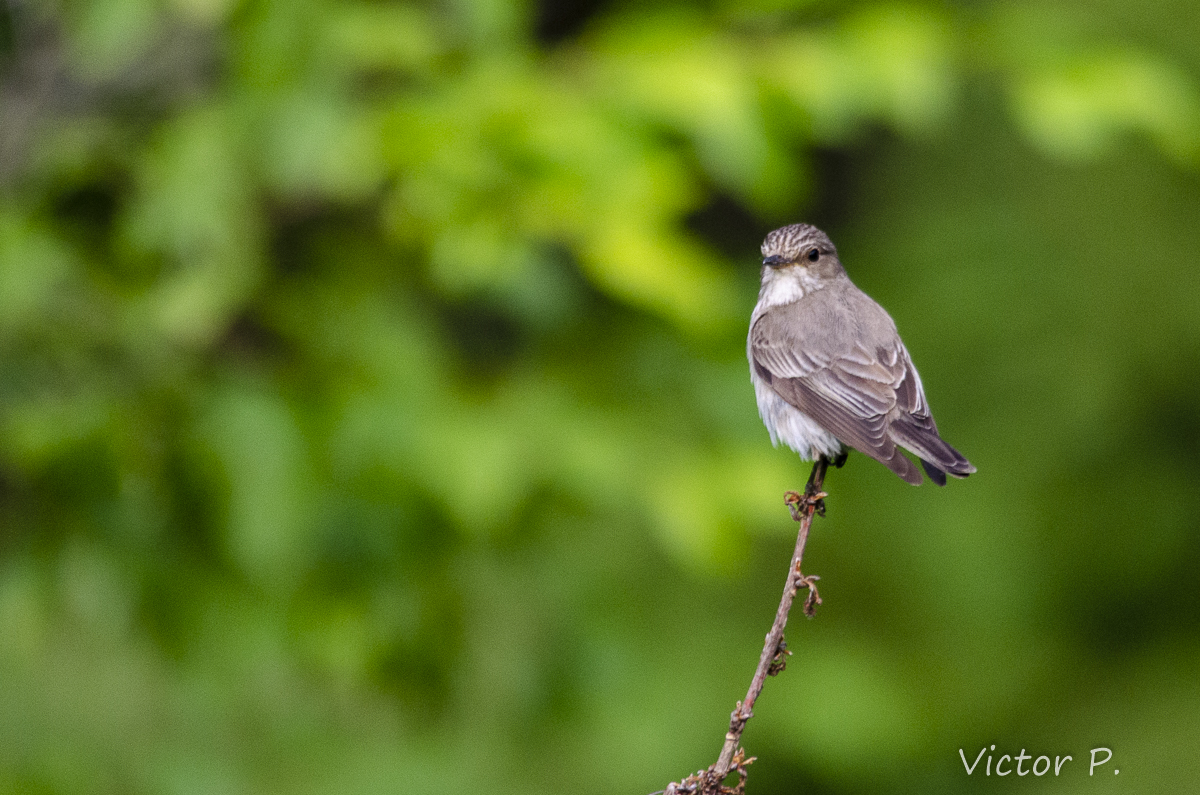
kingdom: Animalia
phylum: Chordata
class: Aves
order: Passeriformes
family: Muscicapidae
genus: Muscicapa
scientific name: Muscicapa striata
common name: Spotted flycatcher
